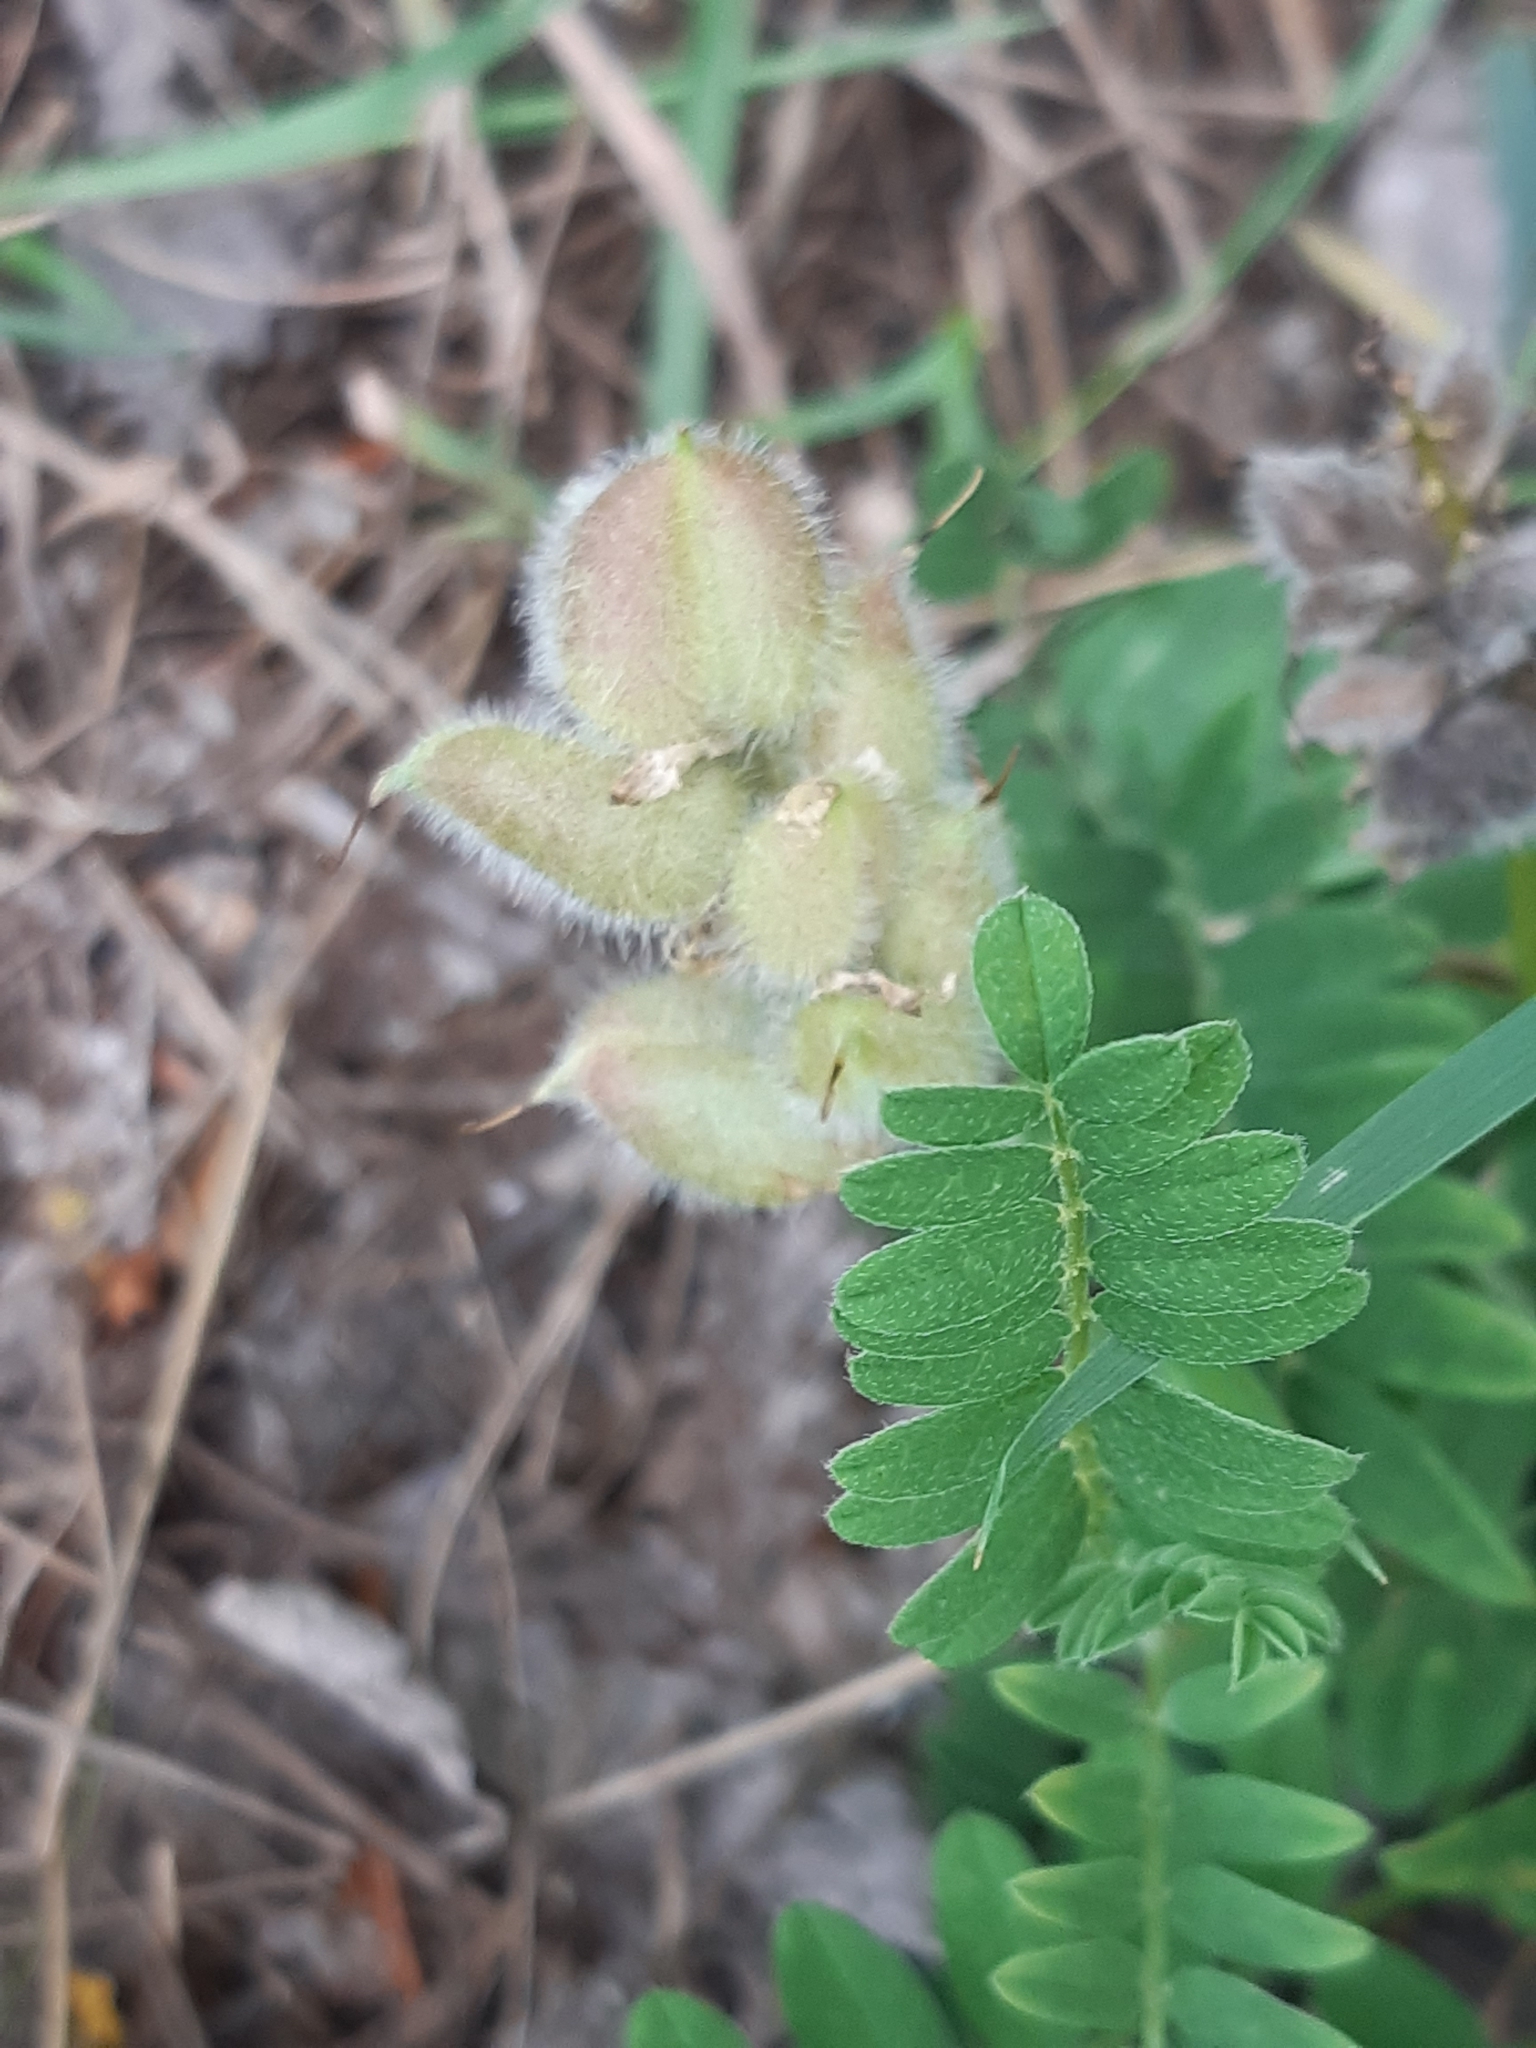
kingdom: Plantae
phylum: Tracheophyta
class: Magnoliopsida
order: Fabales
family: Fabaceae
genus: Astragalus
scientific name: Astragalus cicer
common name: Chick-pea milk-vetch
